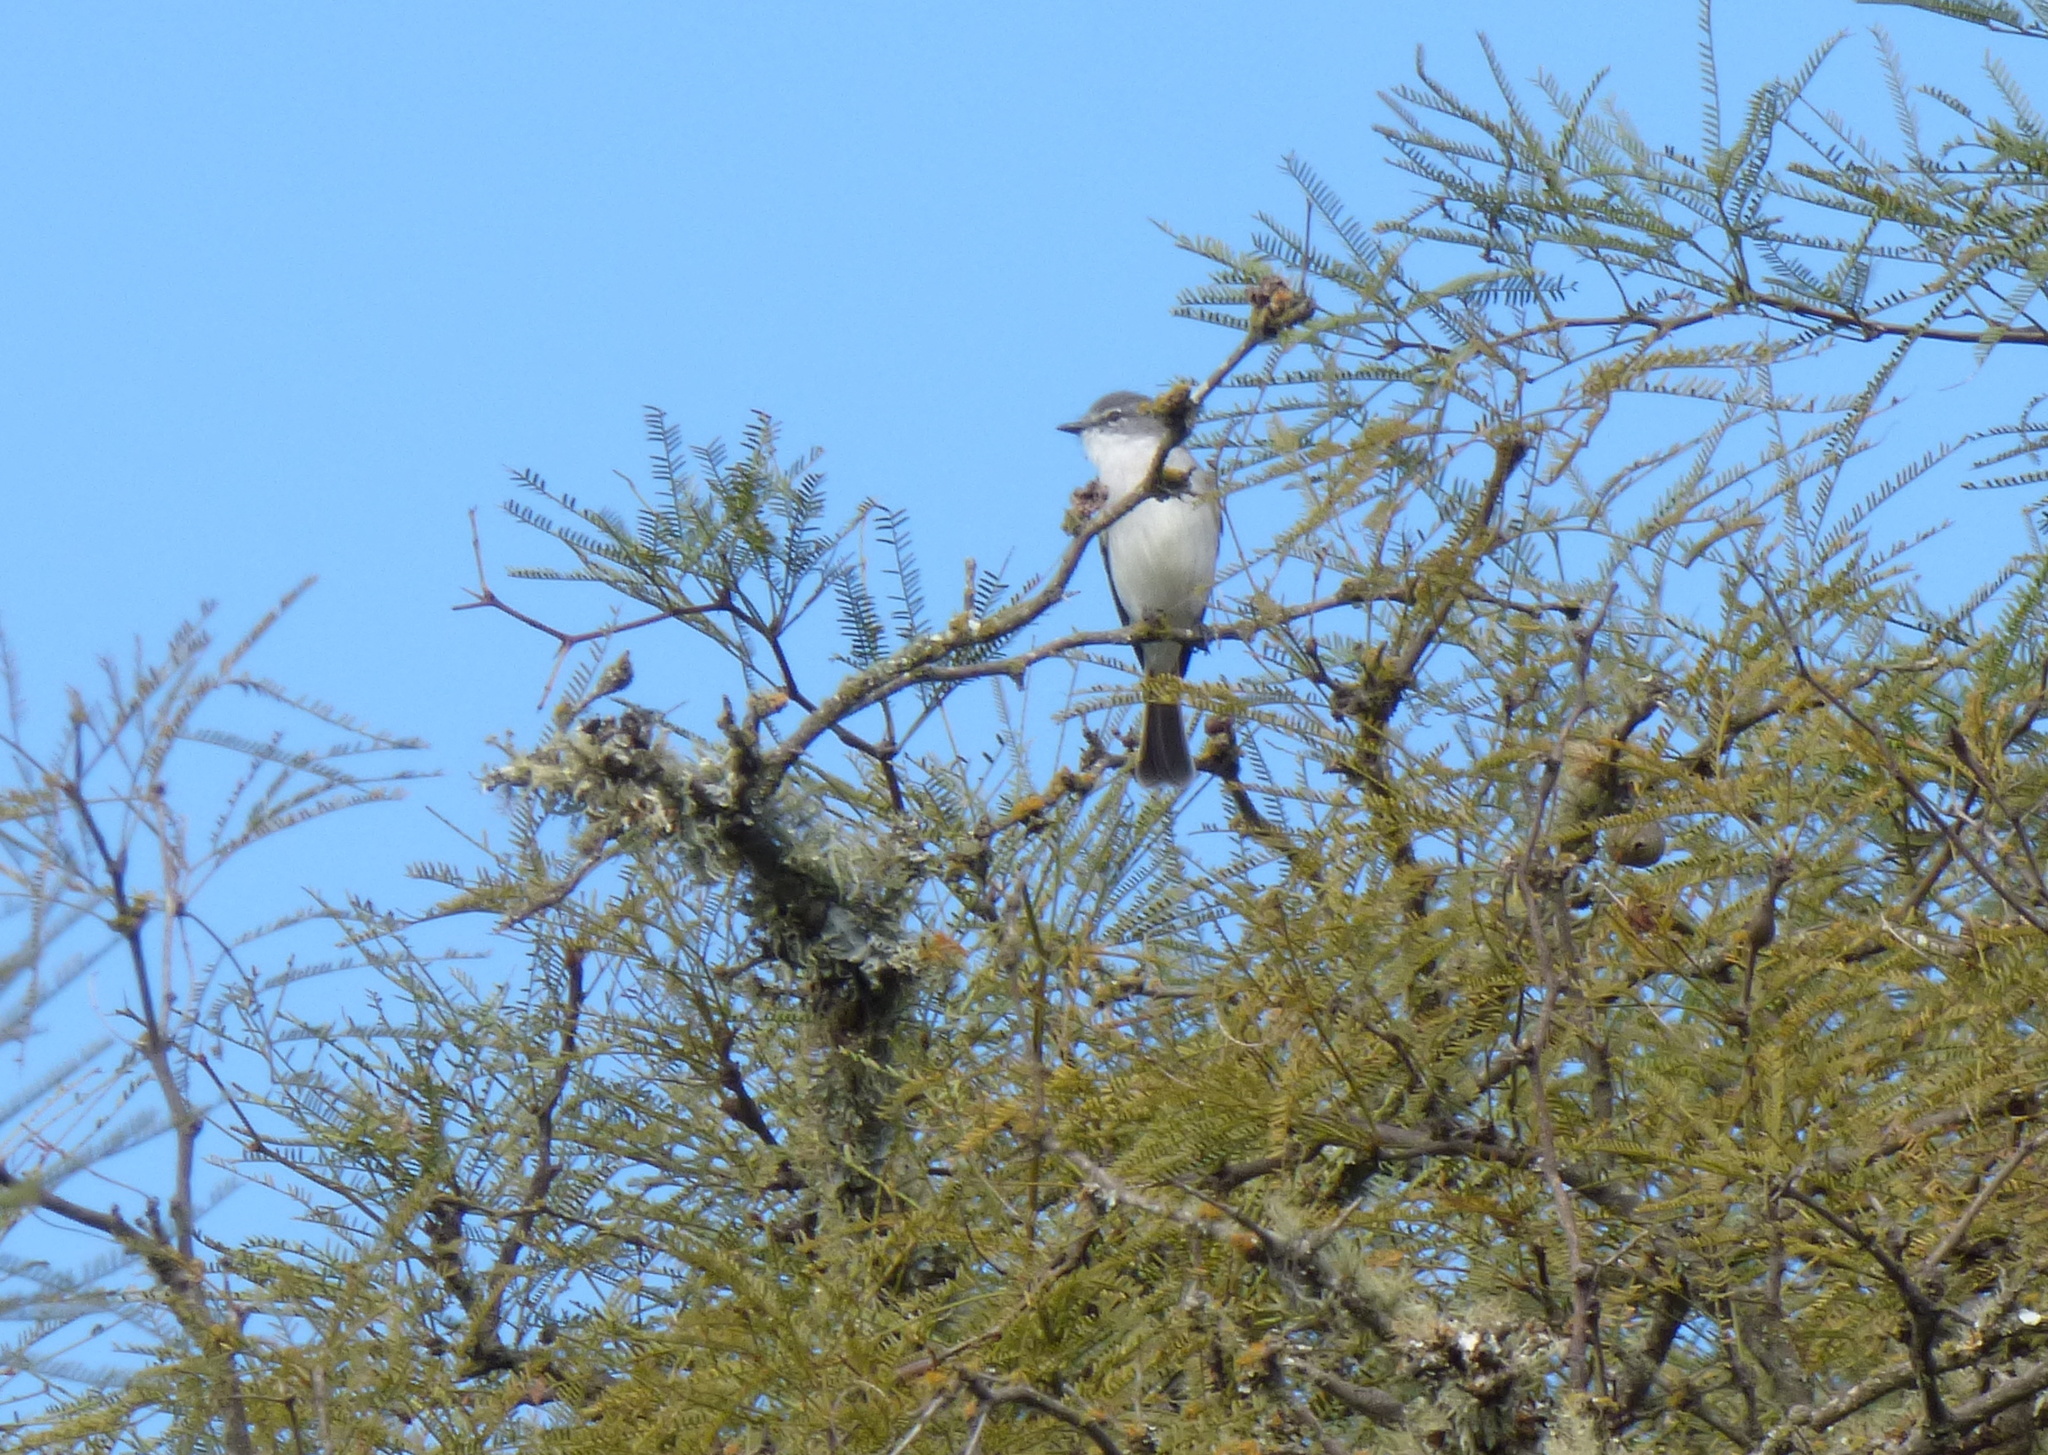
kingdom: Animalia
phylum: Chordata
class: Aves
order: Passeriformes
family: Tyrannidae
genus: Suiriri
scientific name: Suiriri suiriri
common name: Suiriri flycatcher
